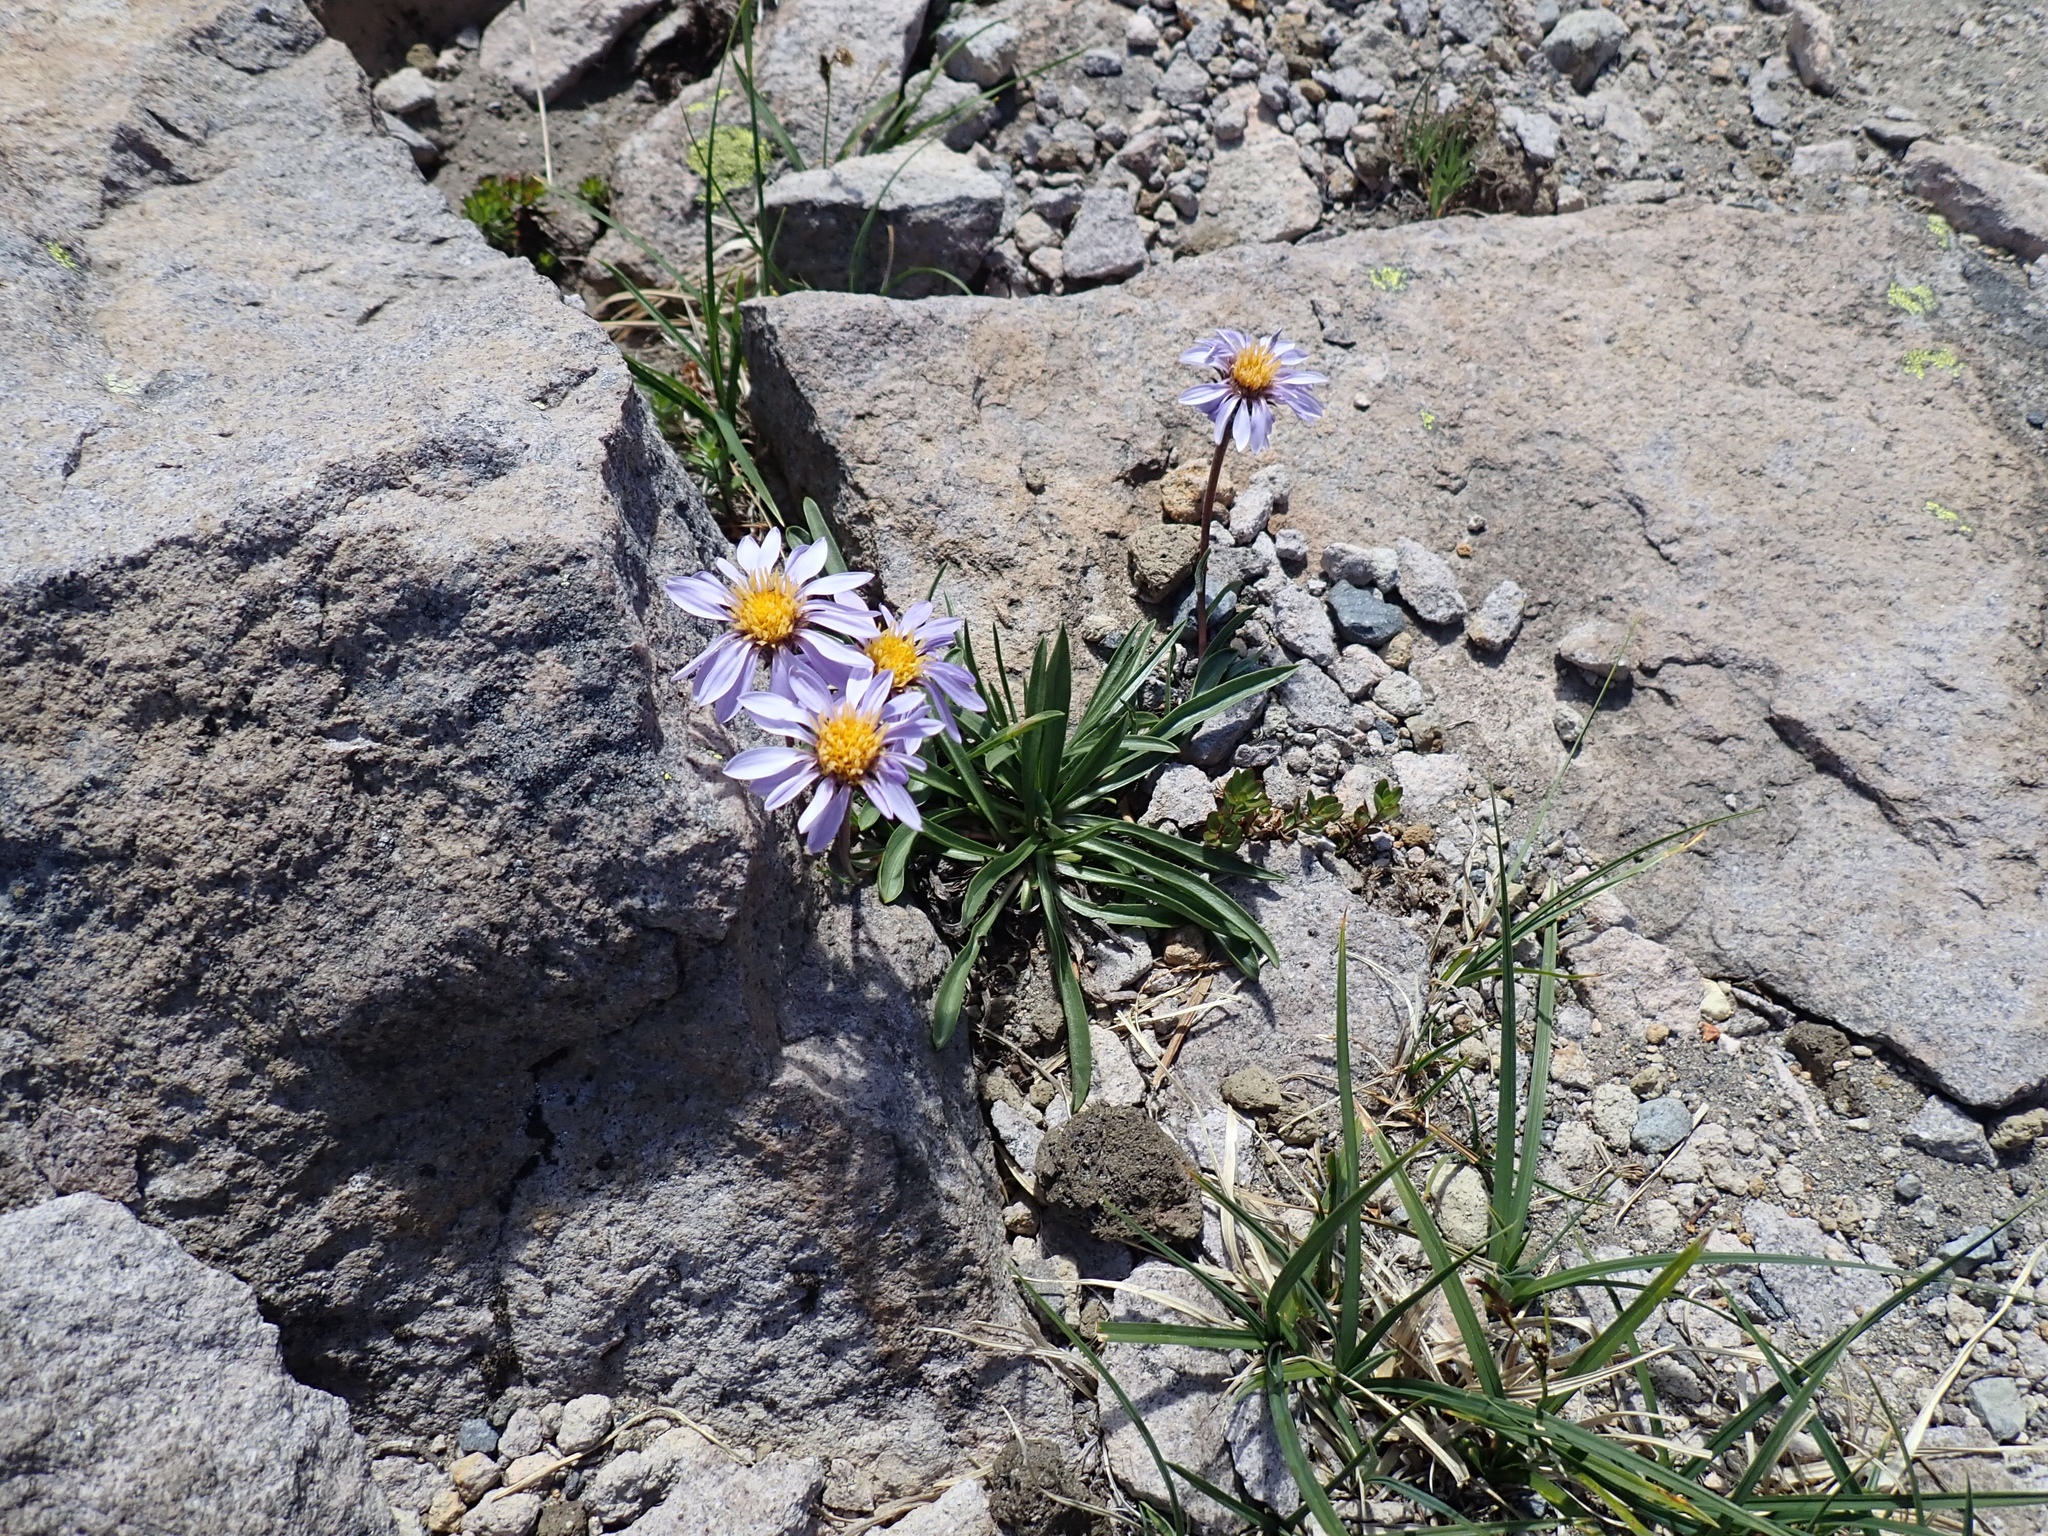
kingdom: Plantae
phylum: Tracheophyta
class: Magnoliopsida
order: Asterales
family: Asteraceae
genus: Oreostemma
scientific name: Oreostemma alpigenum
